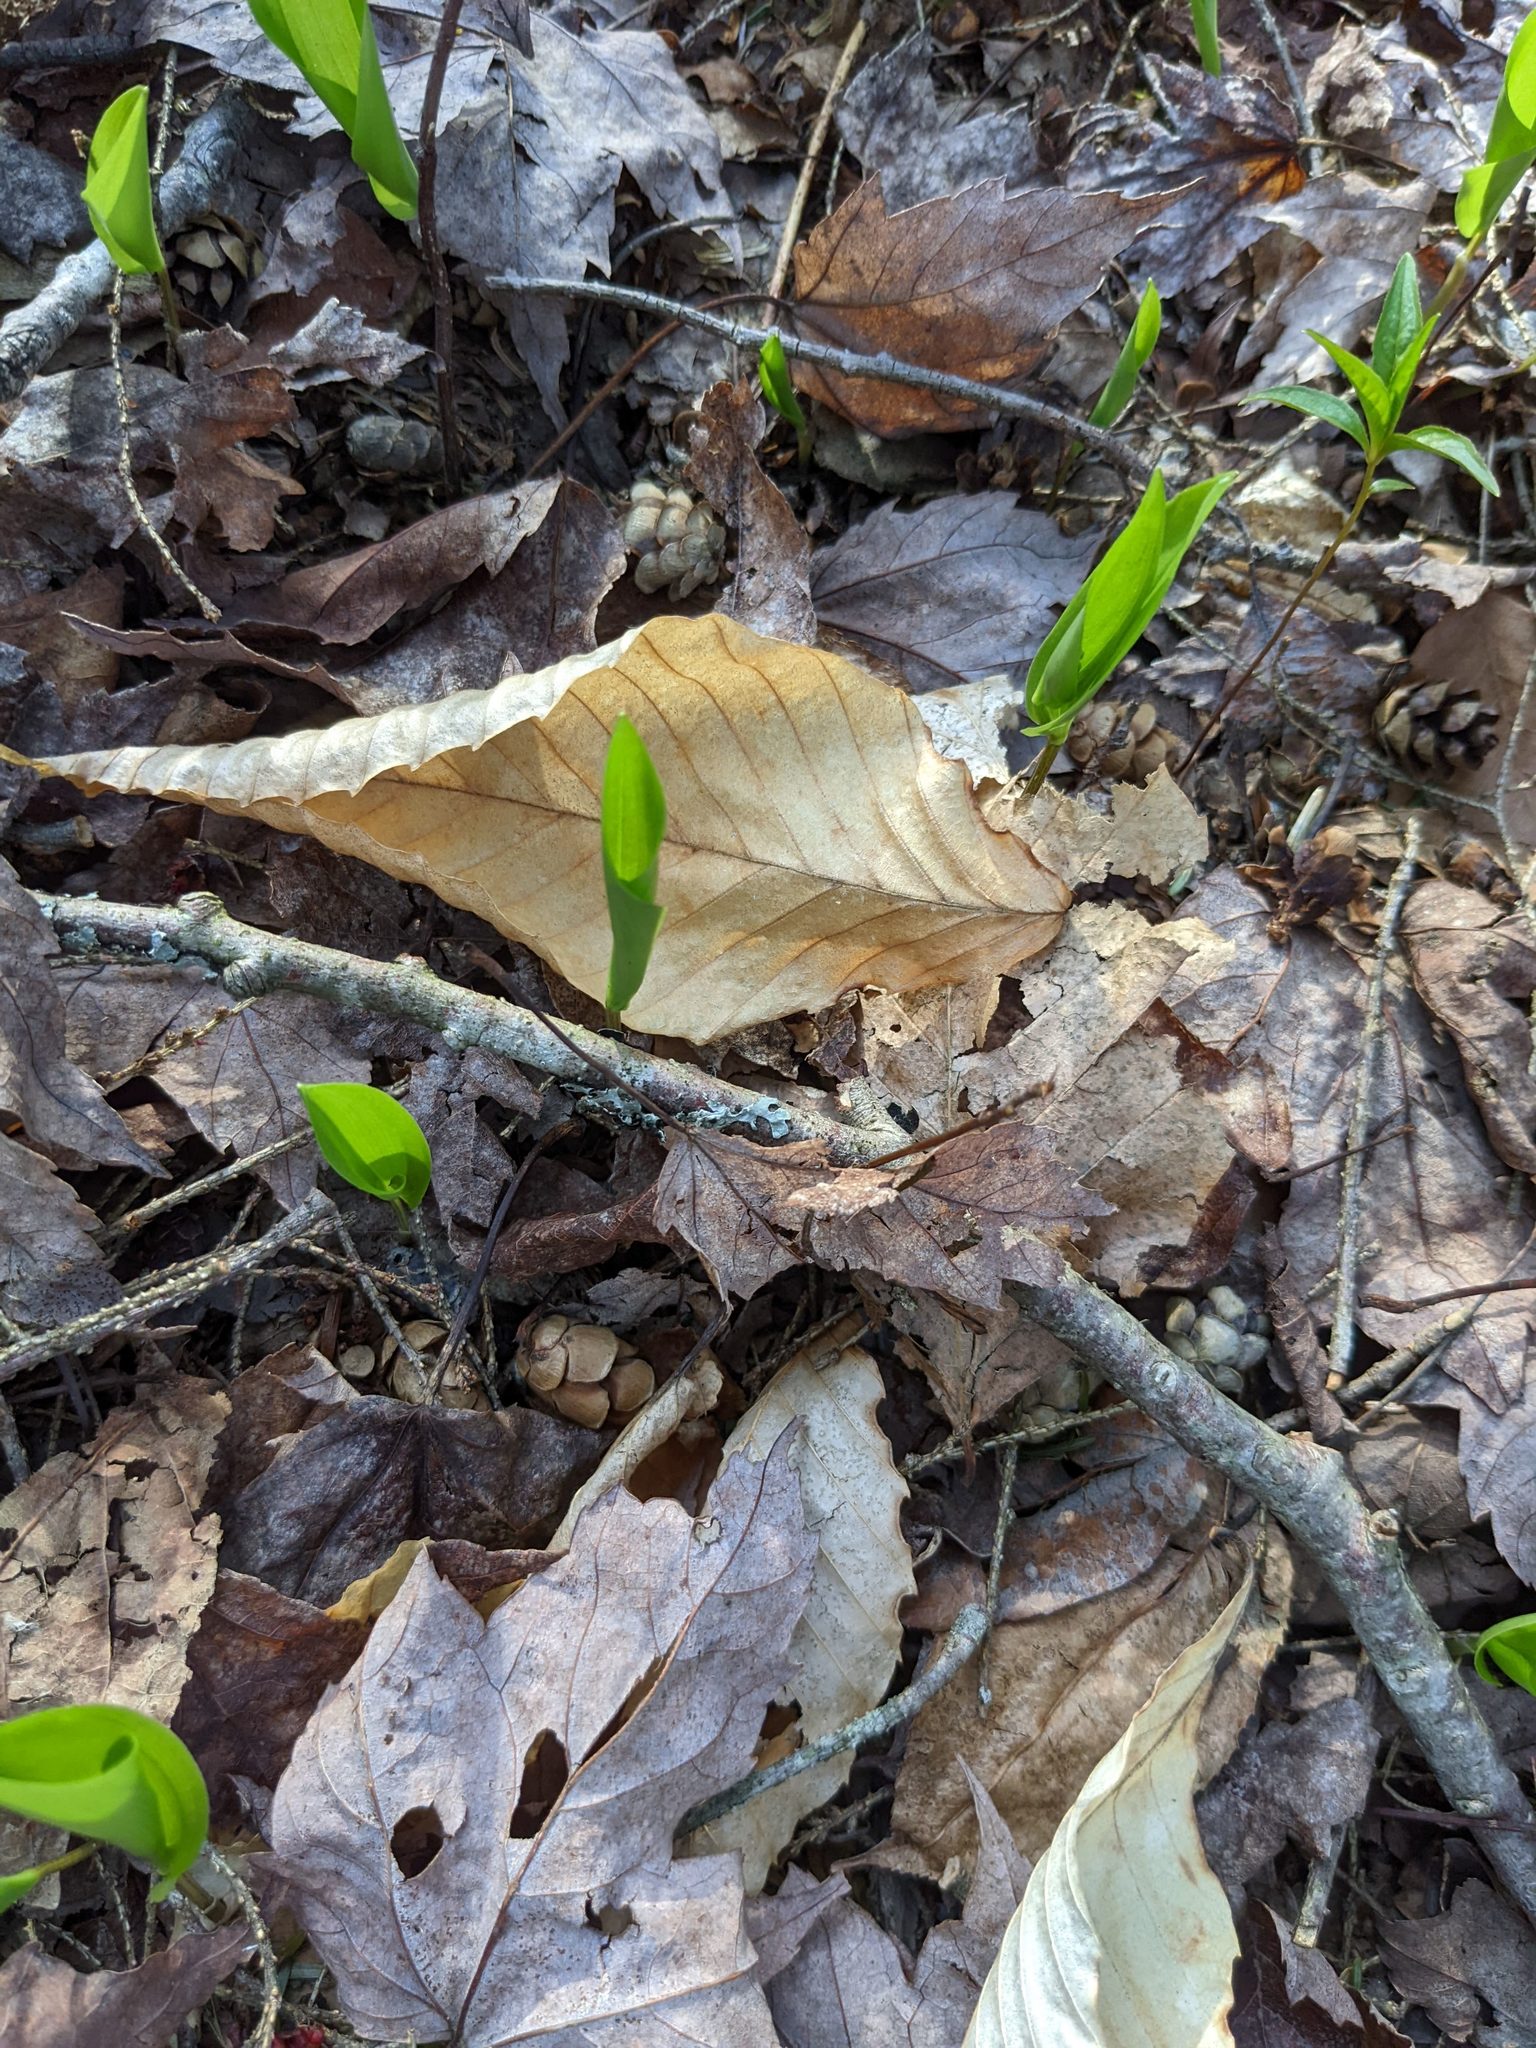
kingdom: Plantae
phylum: Tracheophyta
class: Magnoliopsida
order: Fagales
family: Fagaceae
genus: Fagus
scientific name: Fagus grandifolia
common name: American beech
